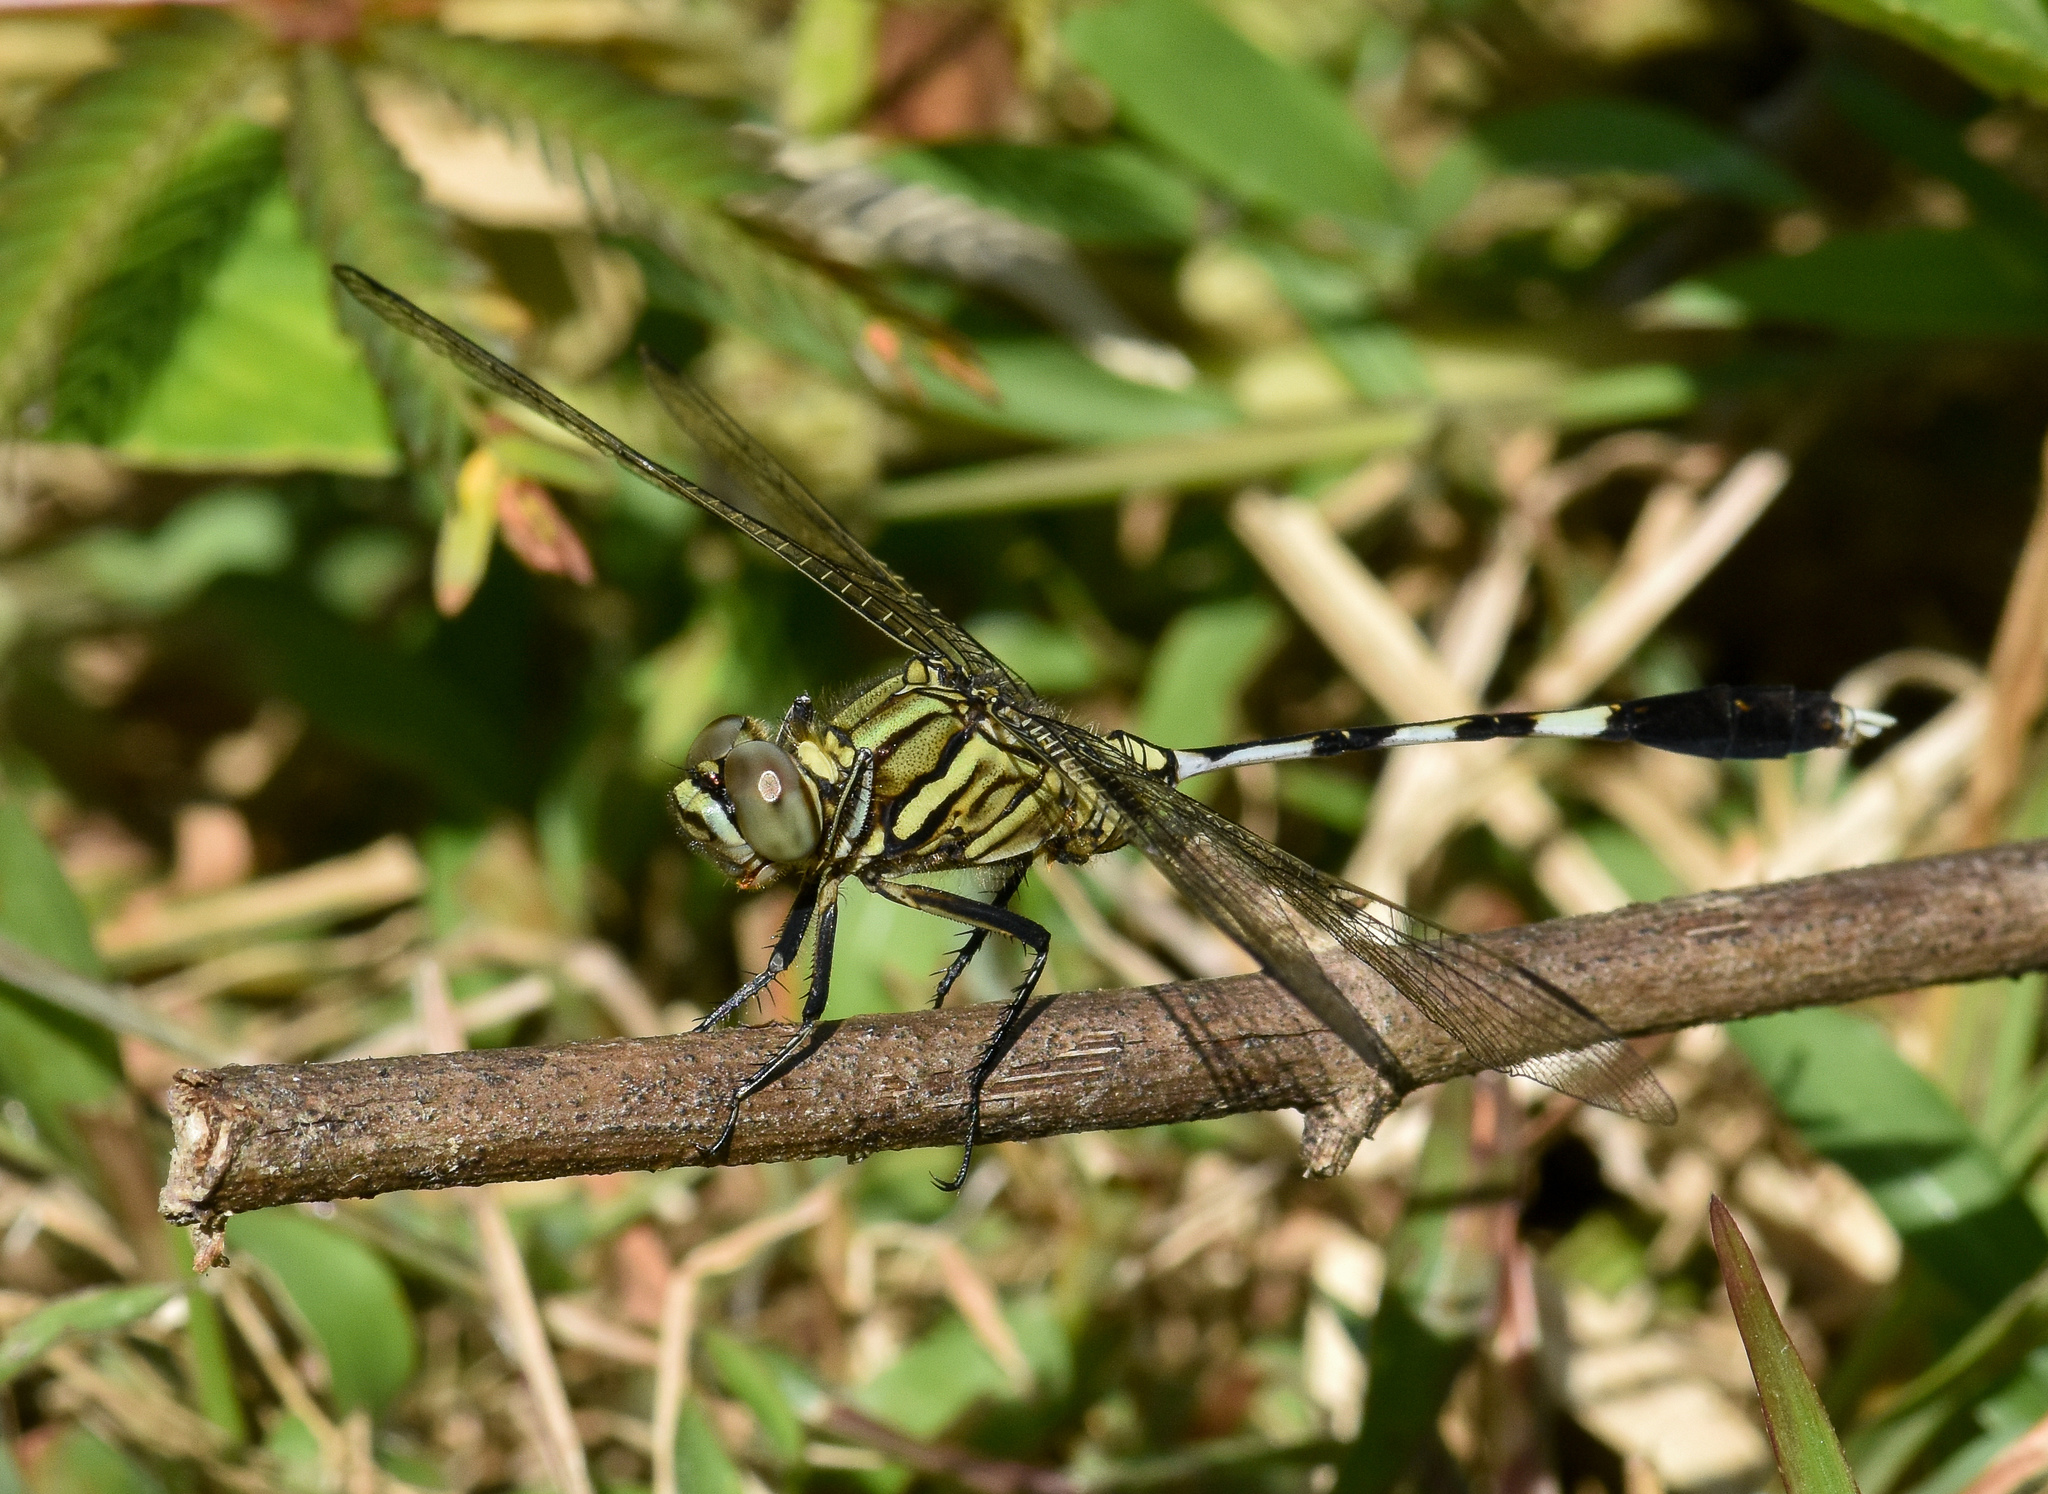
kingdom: Animalia
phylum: Arthropoda
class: Insecta
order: Odonata
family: Libellulidae
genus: Orthetrum
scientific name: Orthetrum sabina
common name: Slender skimmer
